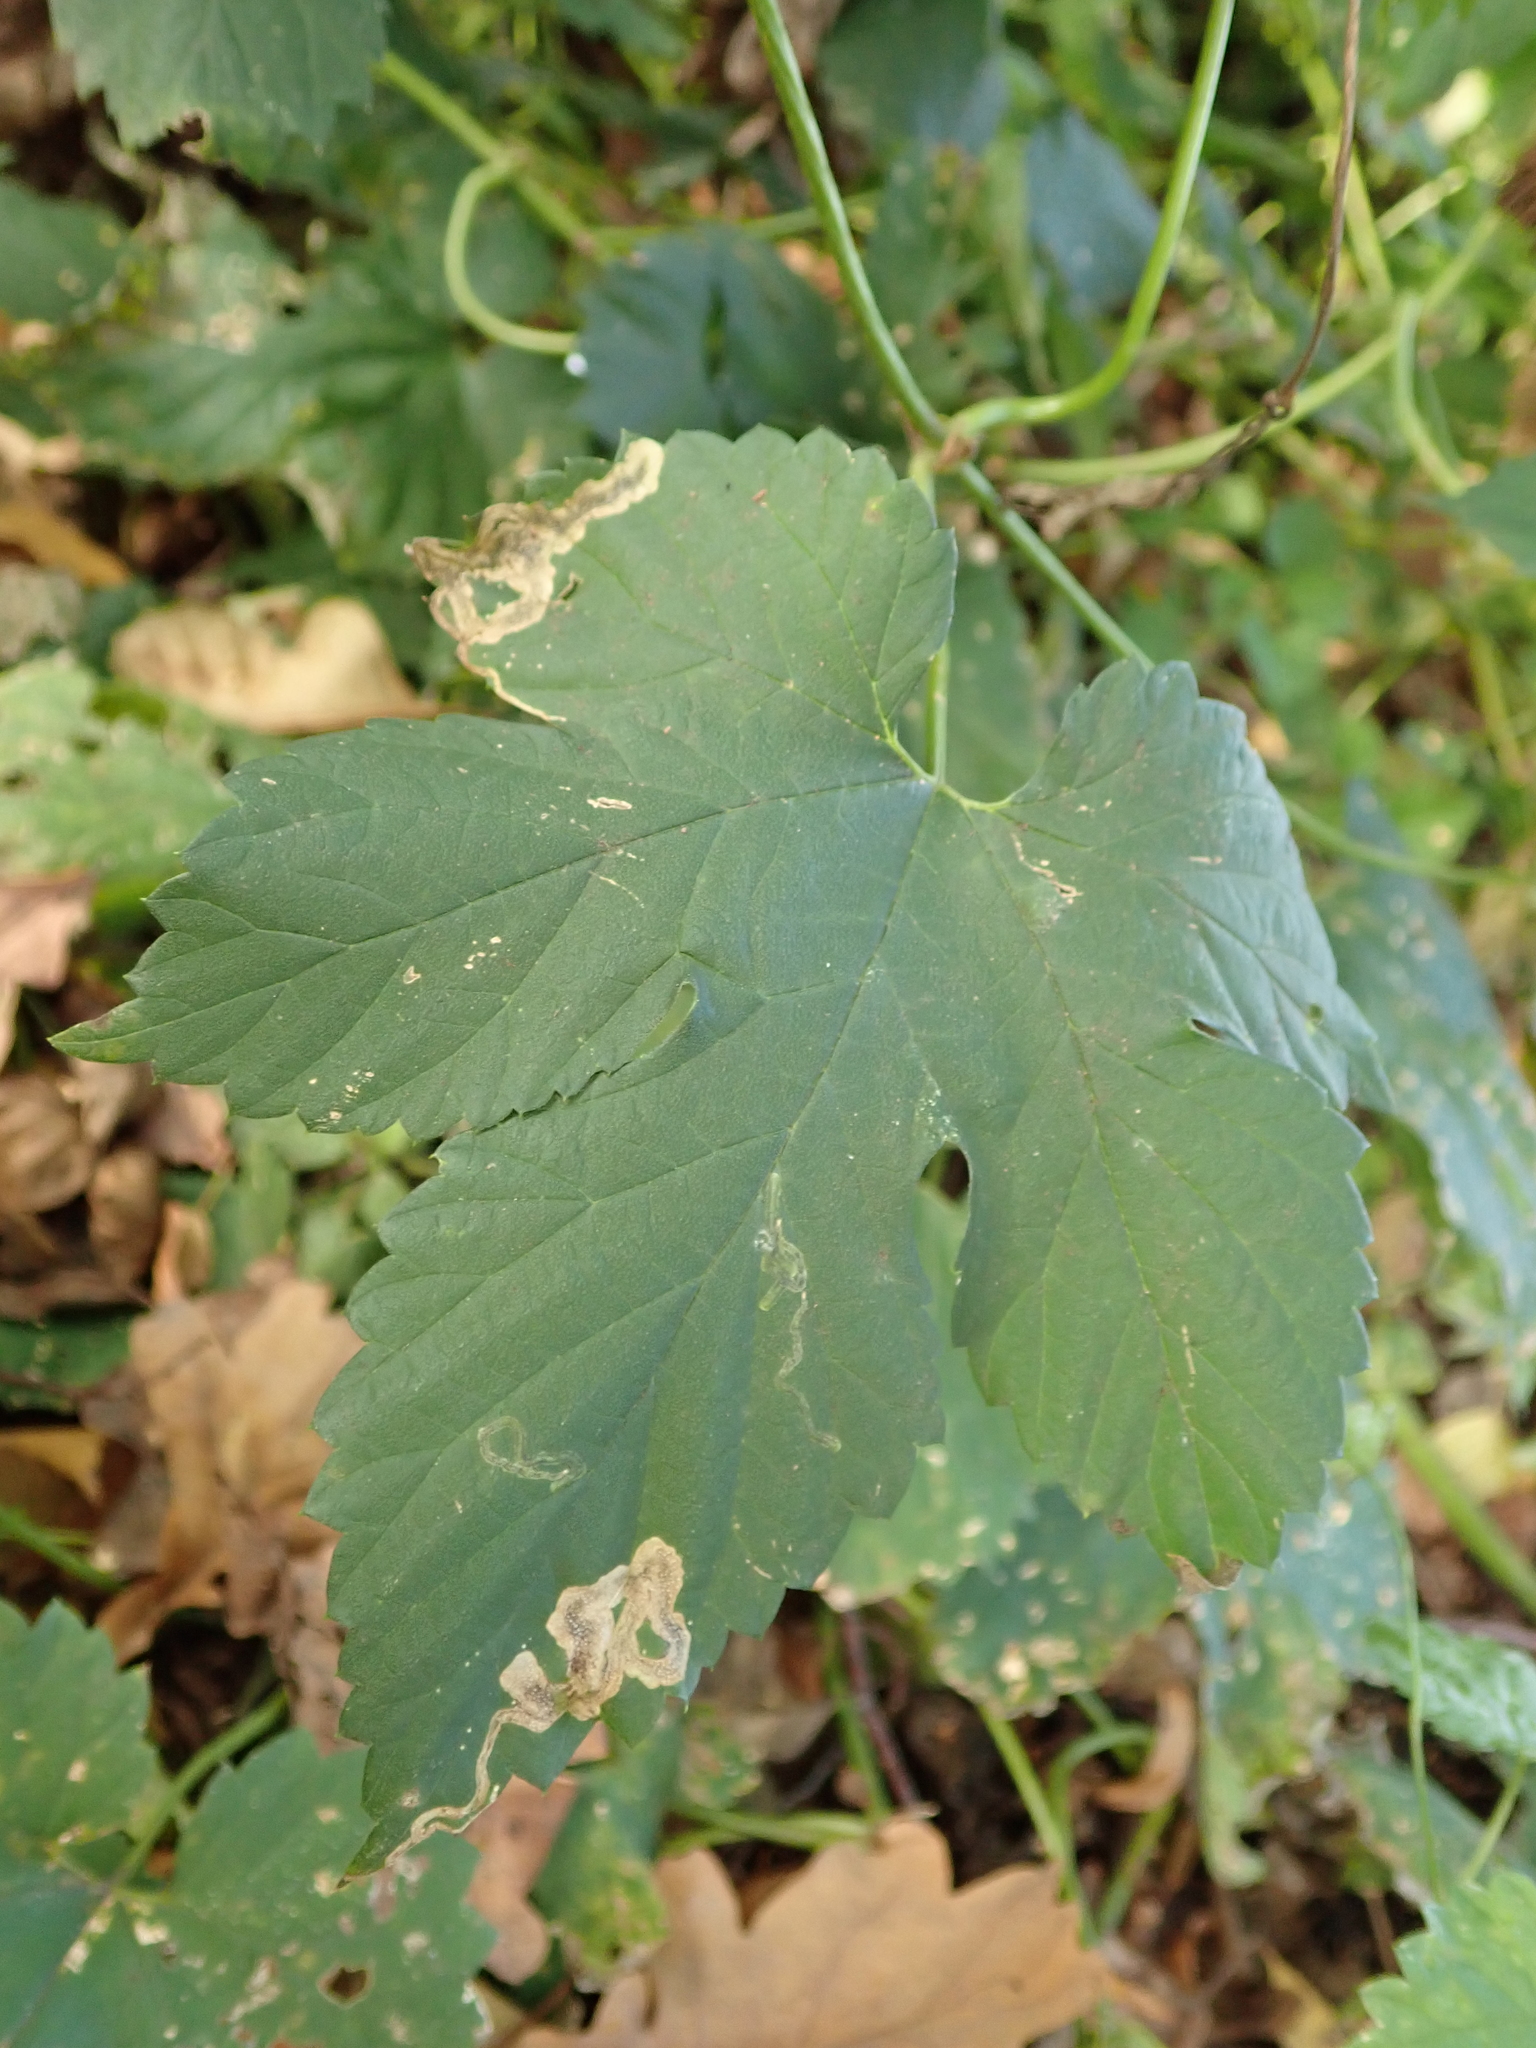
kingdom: Plantae
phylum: Tracheophyta
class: Magnoliopsida
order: Rosales
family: Cannabaceae
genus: Humulus
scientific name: Humulus lupulus
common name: Hop
